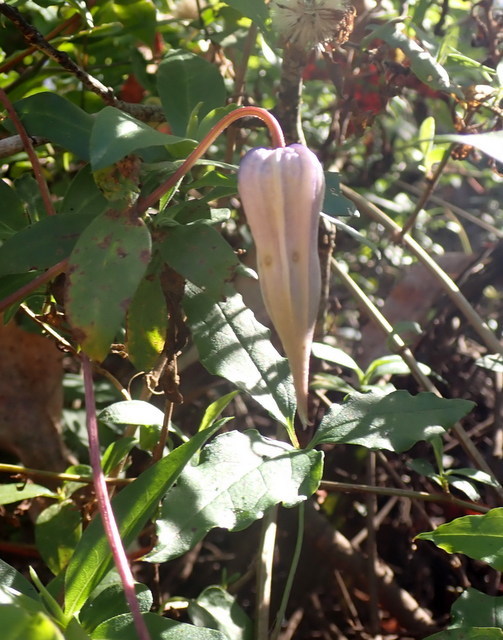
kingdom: Plantae
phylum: Tracheophyta
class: Magnoliopsida
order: Ranunculales
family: Ranunculaceae
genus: Clematis
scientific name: Clematis crispa
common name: Curly clematis
